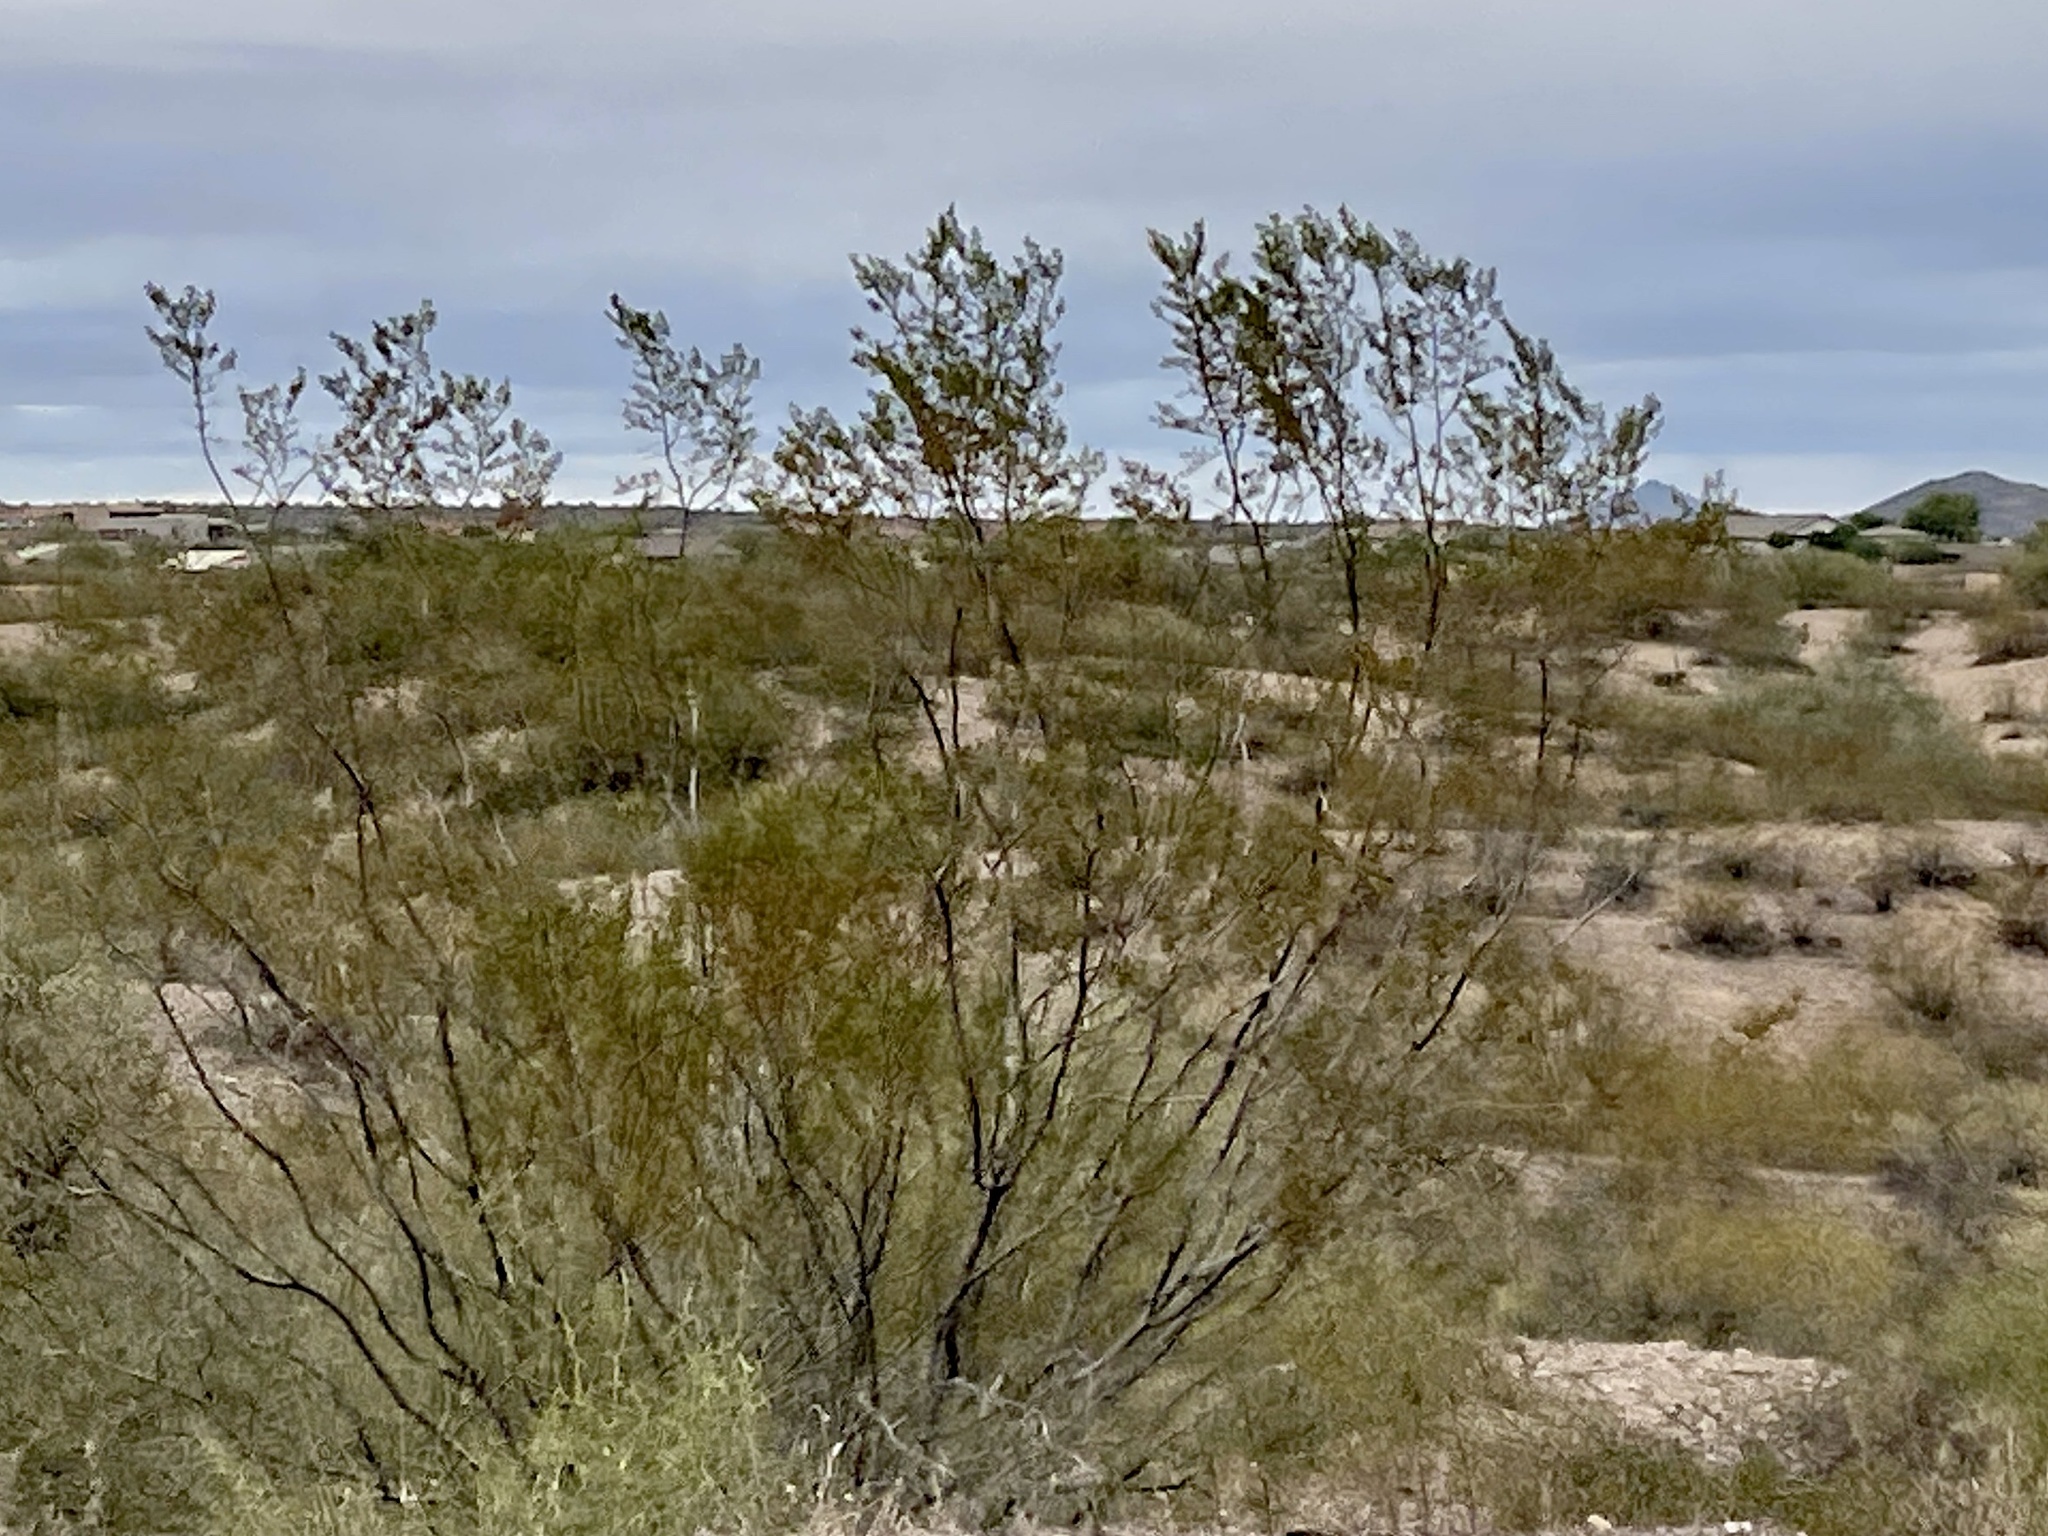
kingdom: Plantae
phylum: Tracheophyta
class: Magnoliopsida
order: Zygophyllales
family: Zygophyllaceae
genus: Larrea
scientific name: Larrea tridentata
